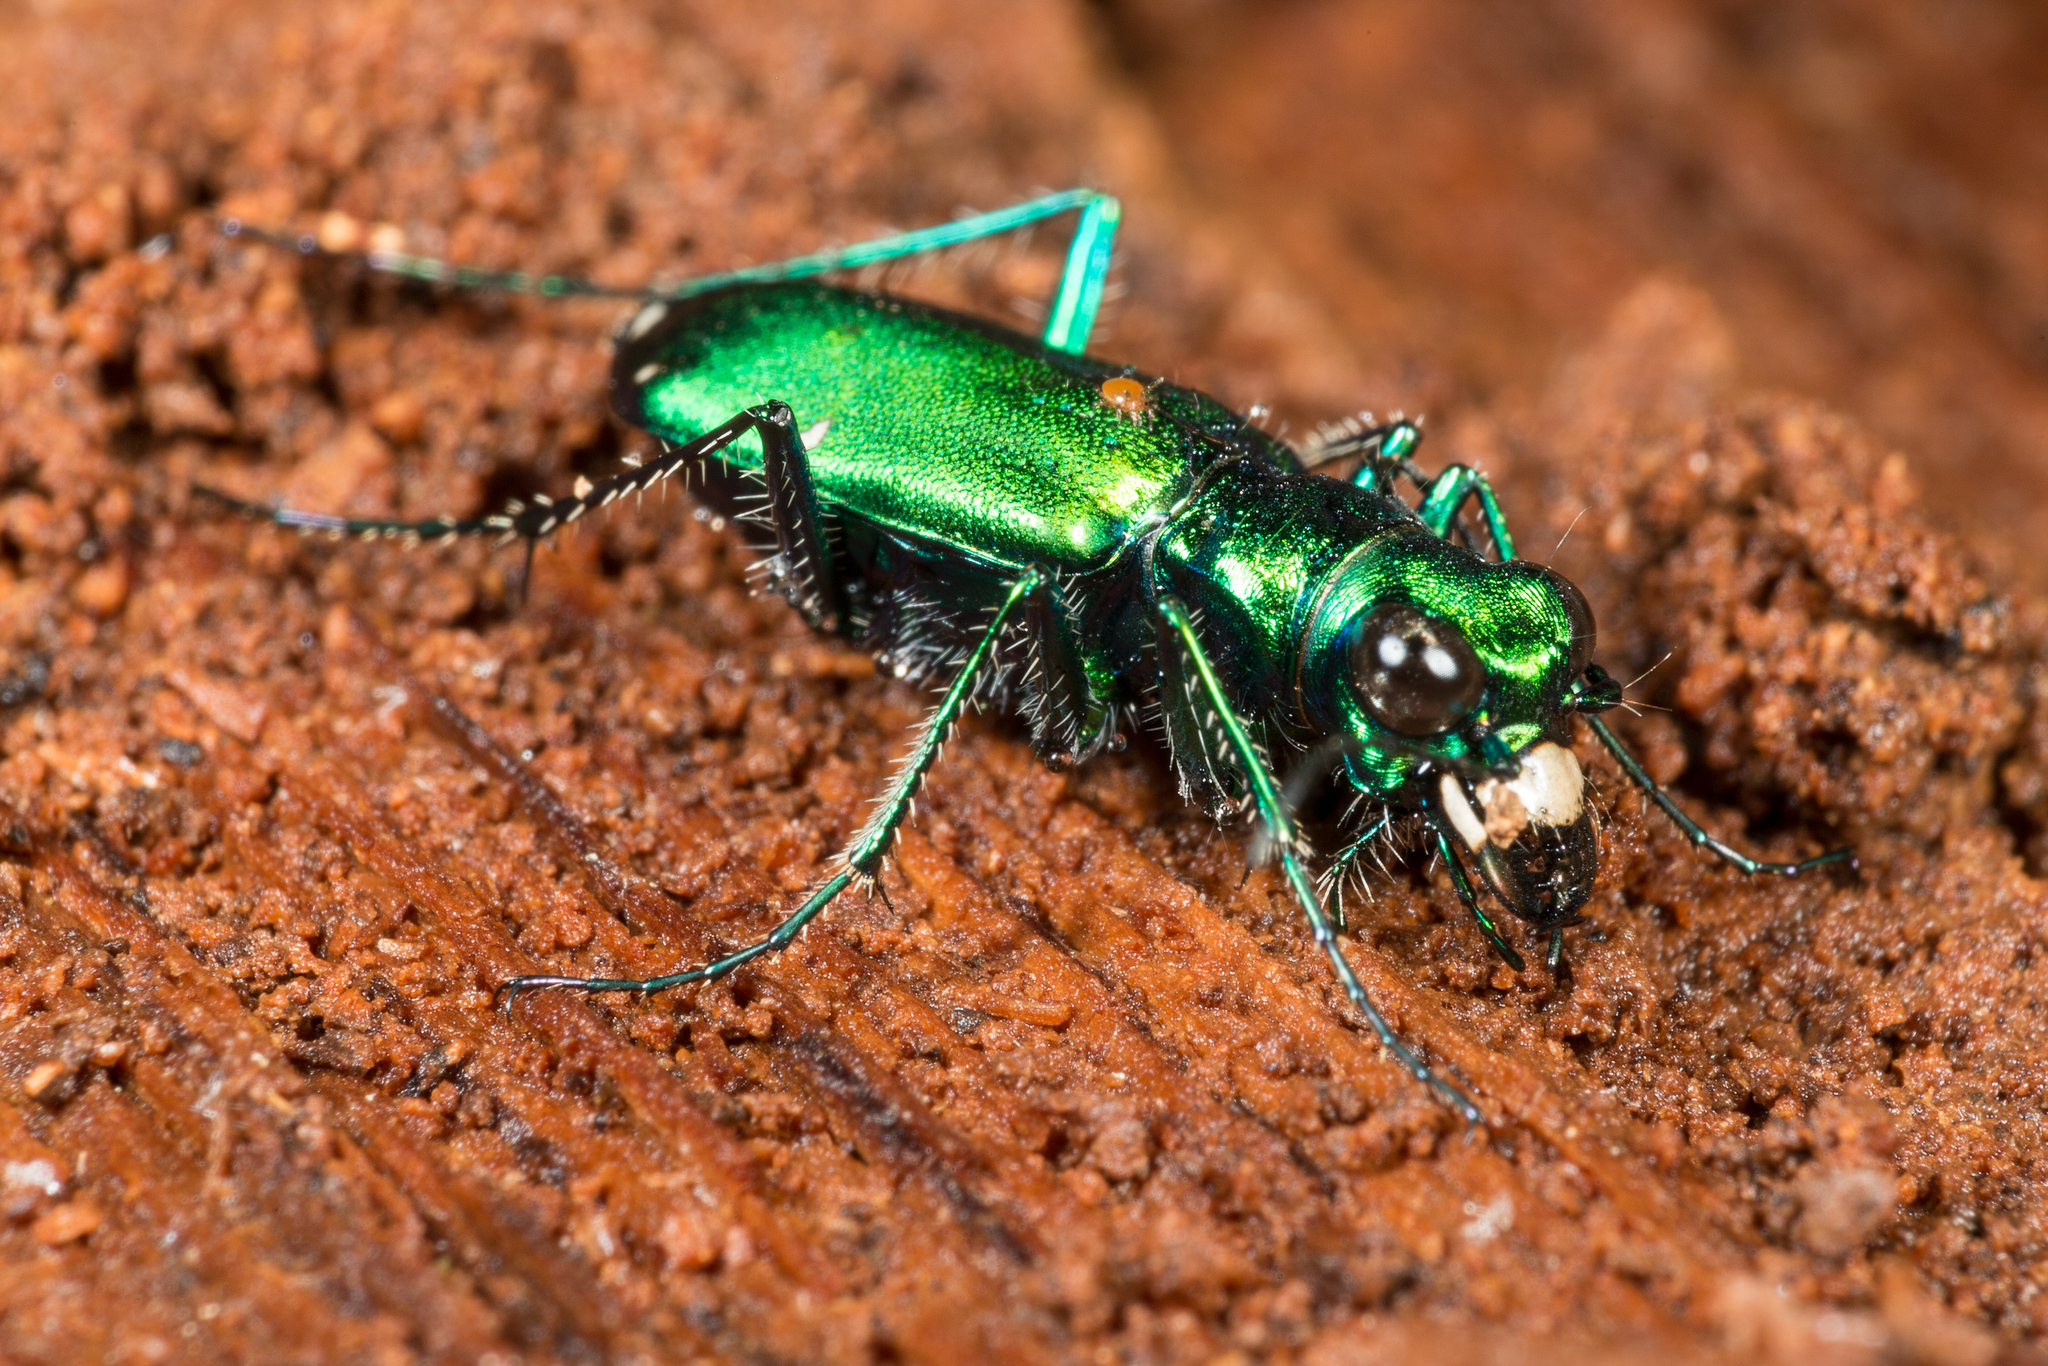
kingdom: Animalia
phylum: Arthropoda
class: Insecta
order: Coleoptera
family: Carabidae
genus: Cicindela
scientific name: Cicindela sexguttata
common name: Six-spotted tiger beetle
